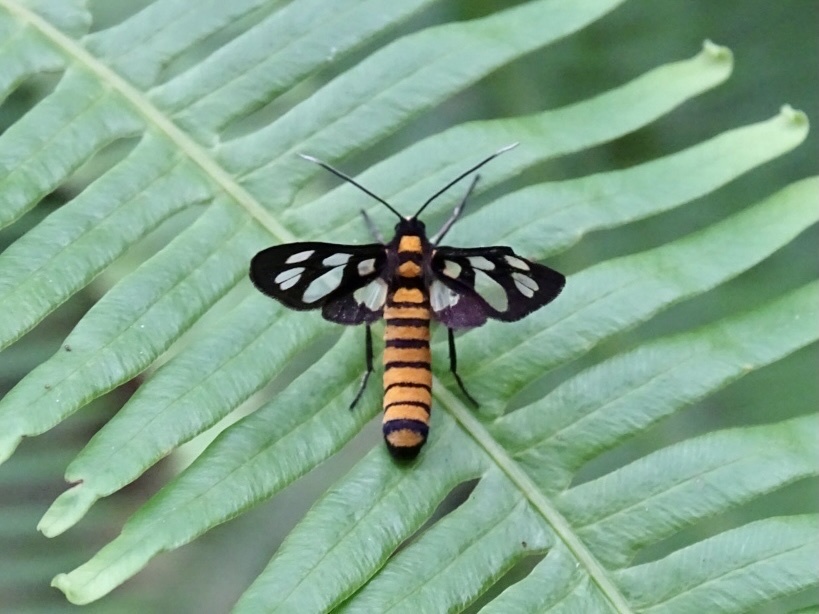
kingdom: Animalia
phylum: Arthropoda
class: Insecta
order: Lepidoptera
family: Erebidae
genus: Amata
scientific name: Amata germana
